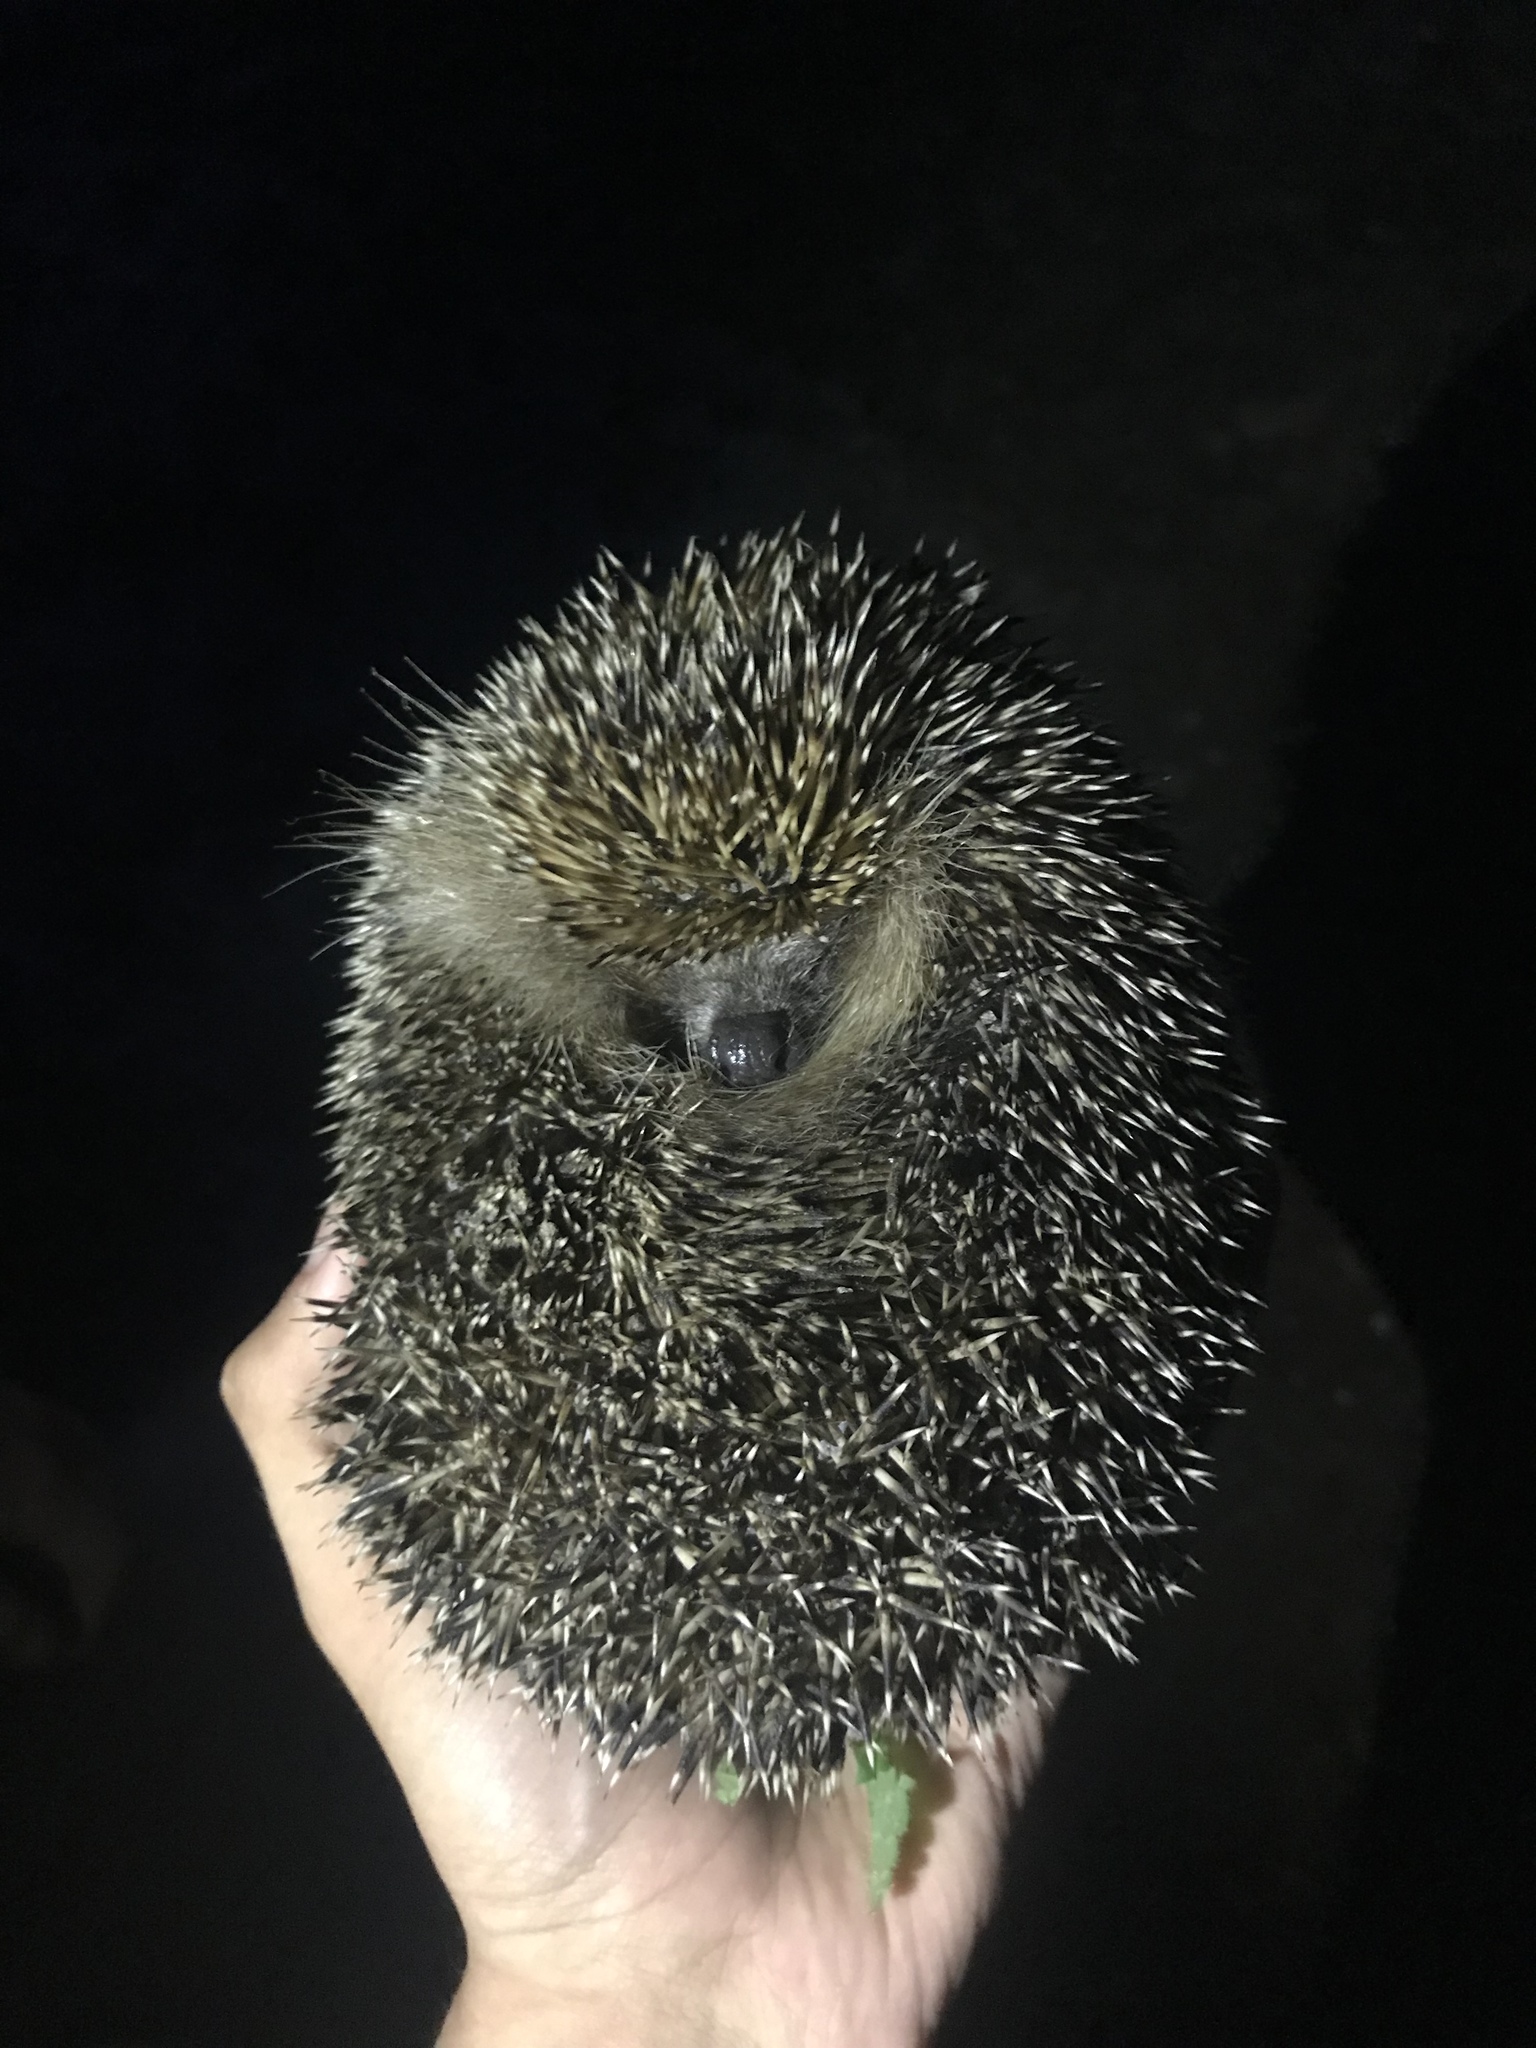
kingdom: Animalia
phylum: Chordata
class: Mammalia
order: Erinaceomorpha
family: Erinaceidae
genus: Erinaceus
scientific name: Erinaceus europaeus
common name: West european hedgehog
